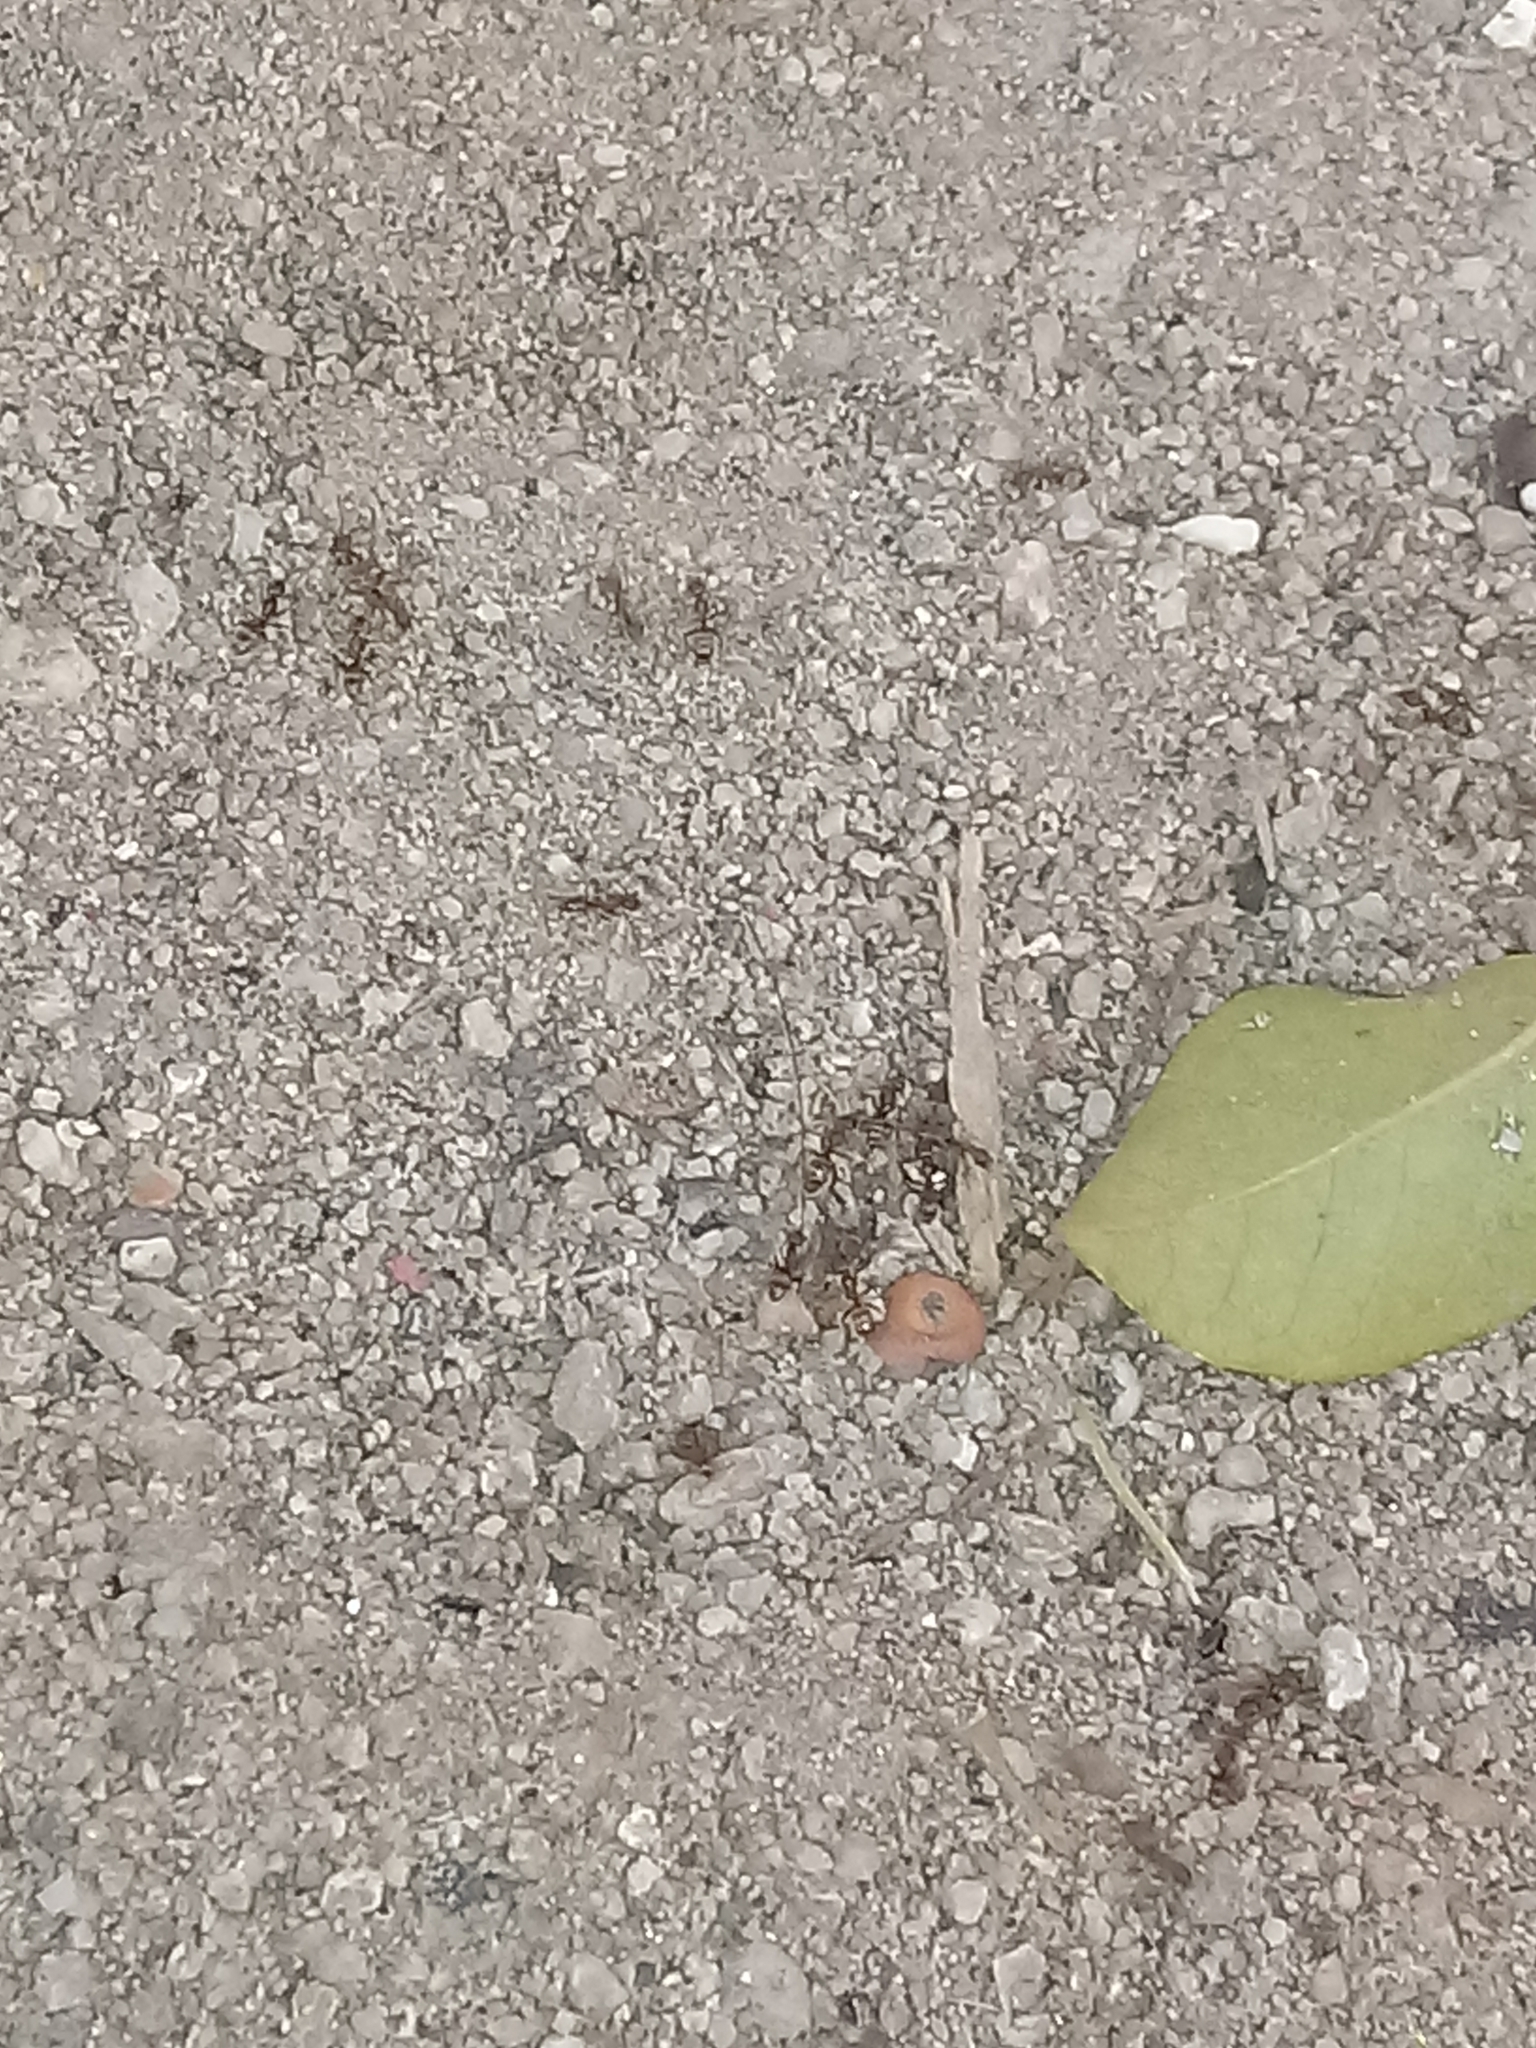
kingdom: Animalia
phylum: Arthropoda
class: Insecta
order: Hymenoptera
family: Formicidae
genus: Linepithema
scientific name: Linepithema humile
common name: Argentine ant
